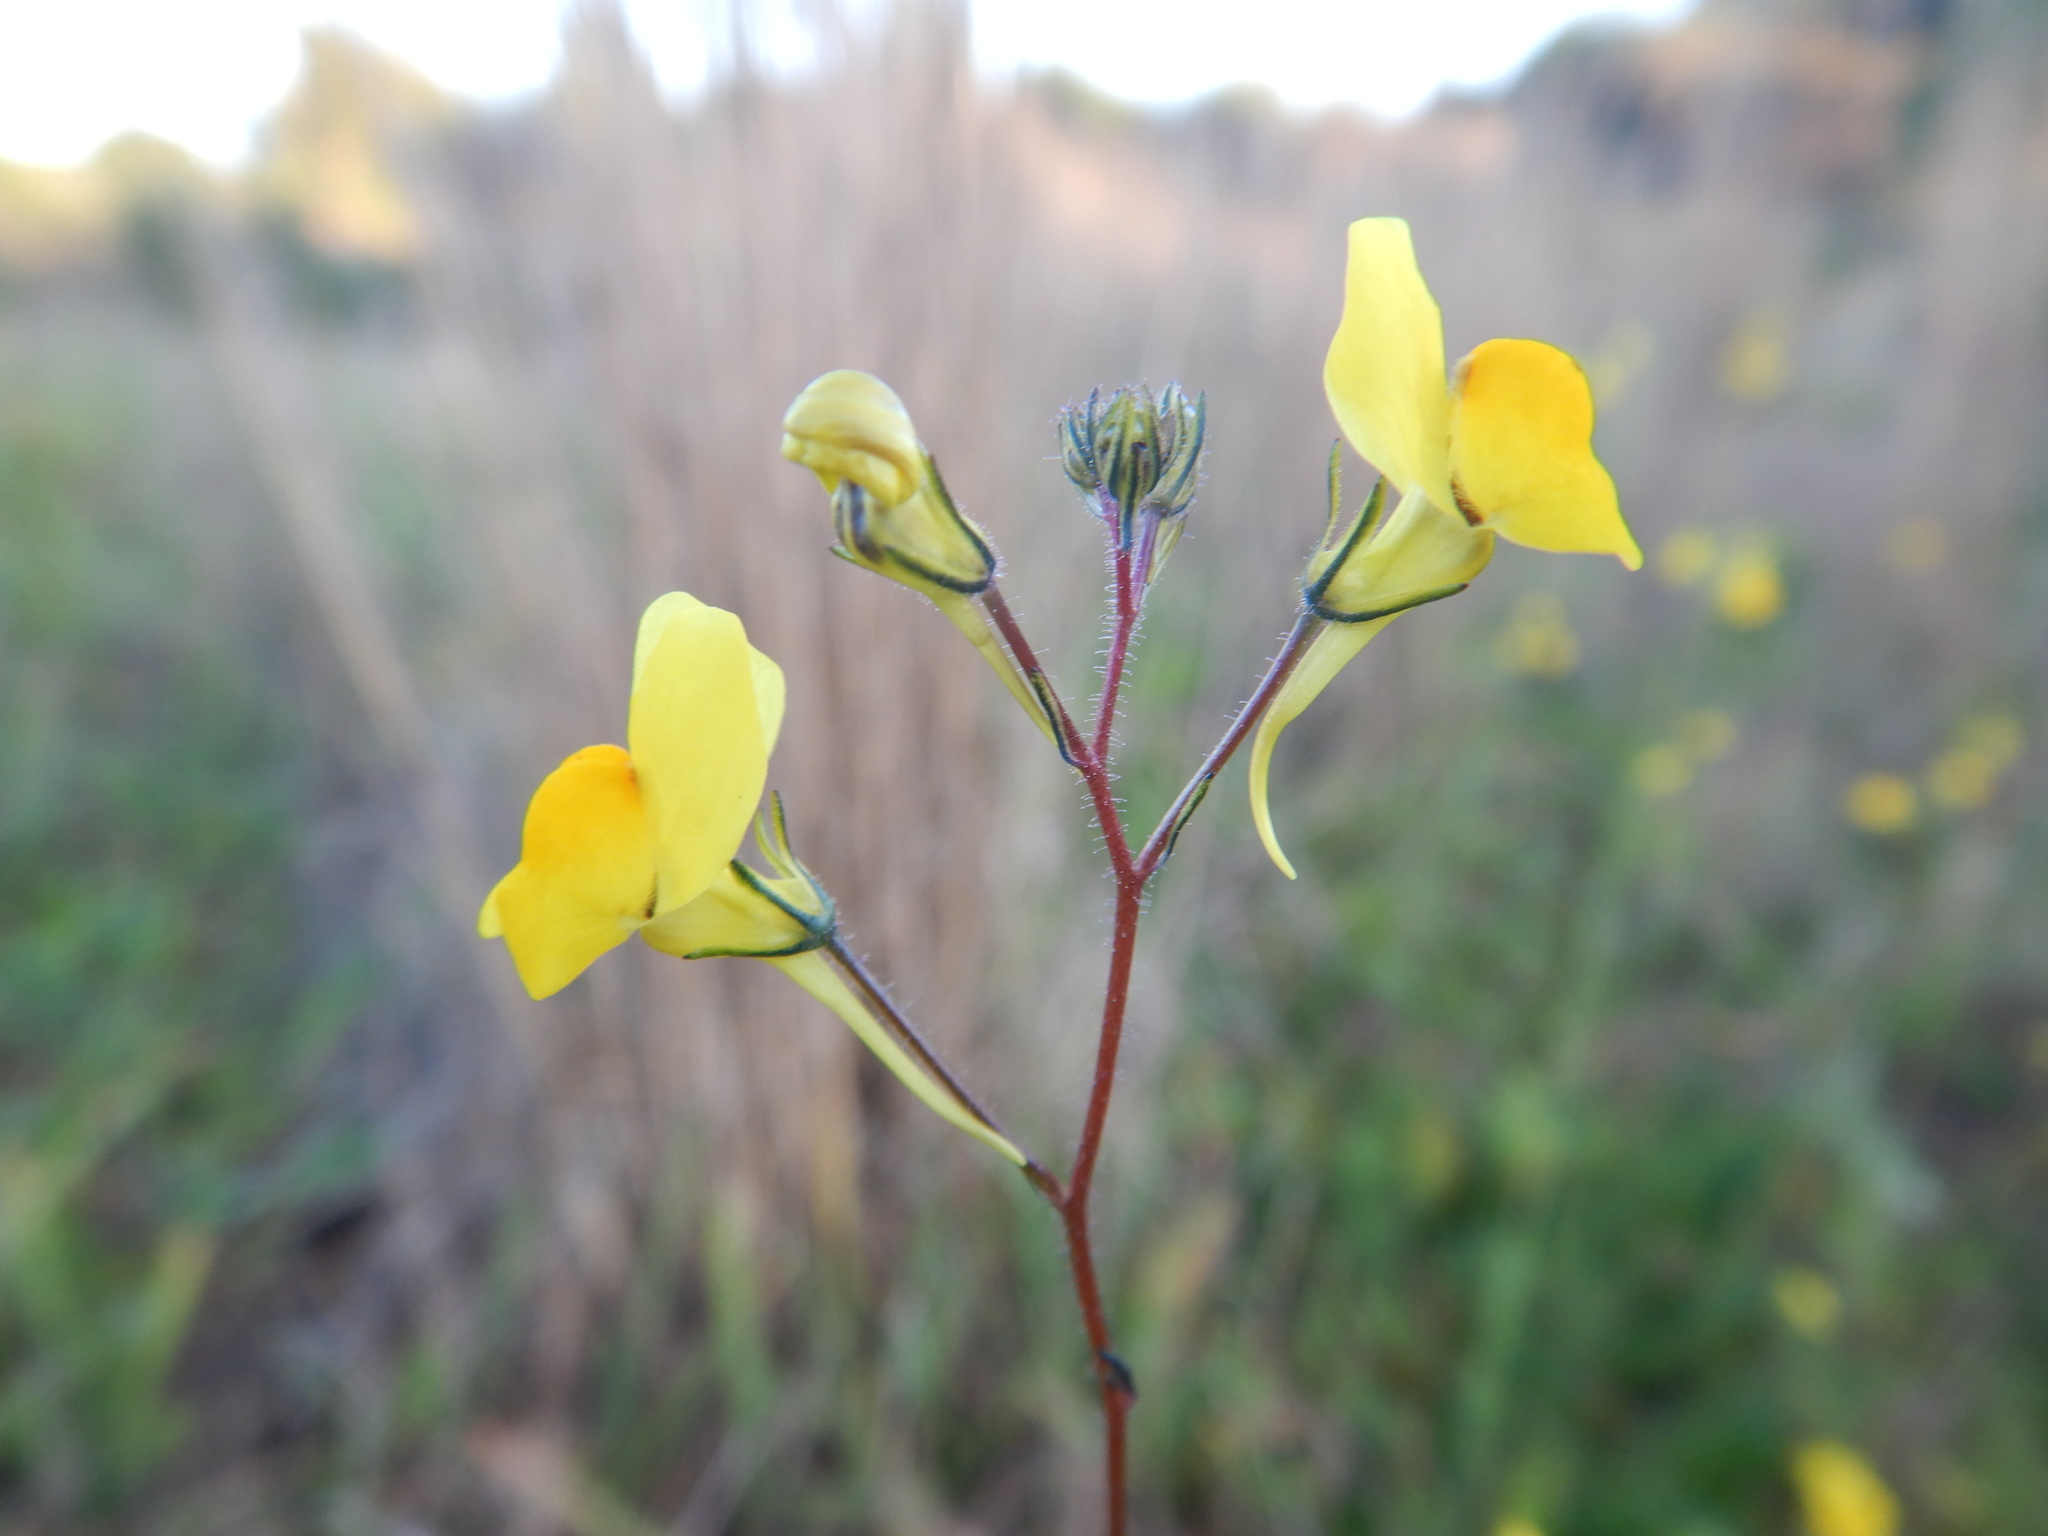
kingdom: Plantae
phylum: Tracheophyta
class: Magnoliopsida
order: Lamiales
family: Plantaginaceae
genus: Linaria
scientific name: Linaria spartea
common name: Ballast toadflax
